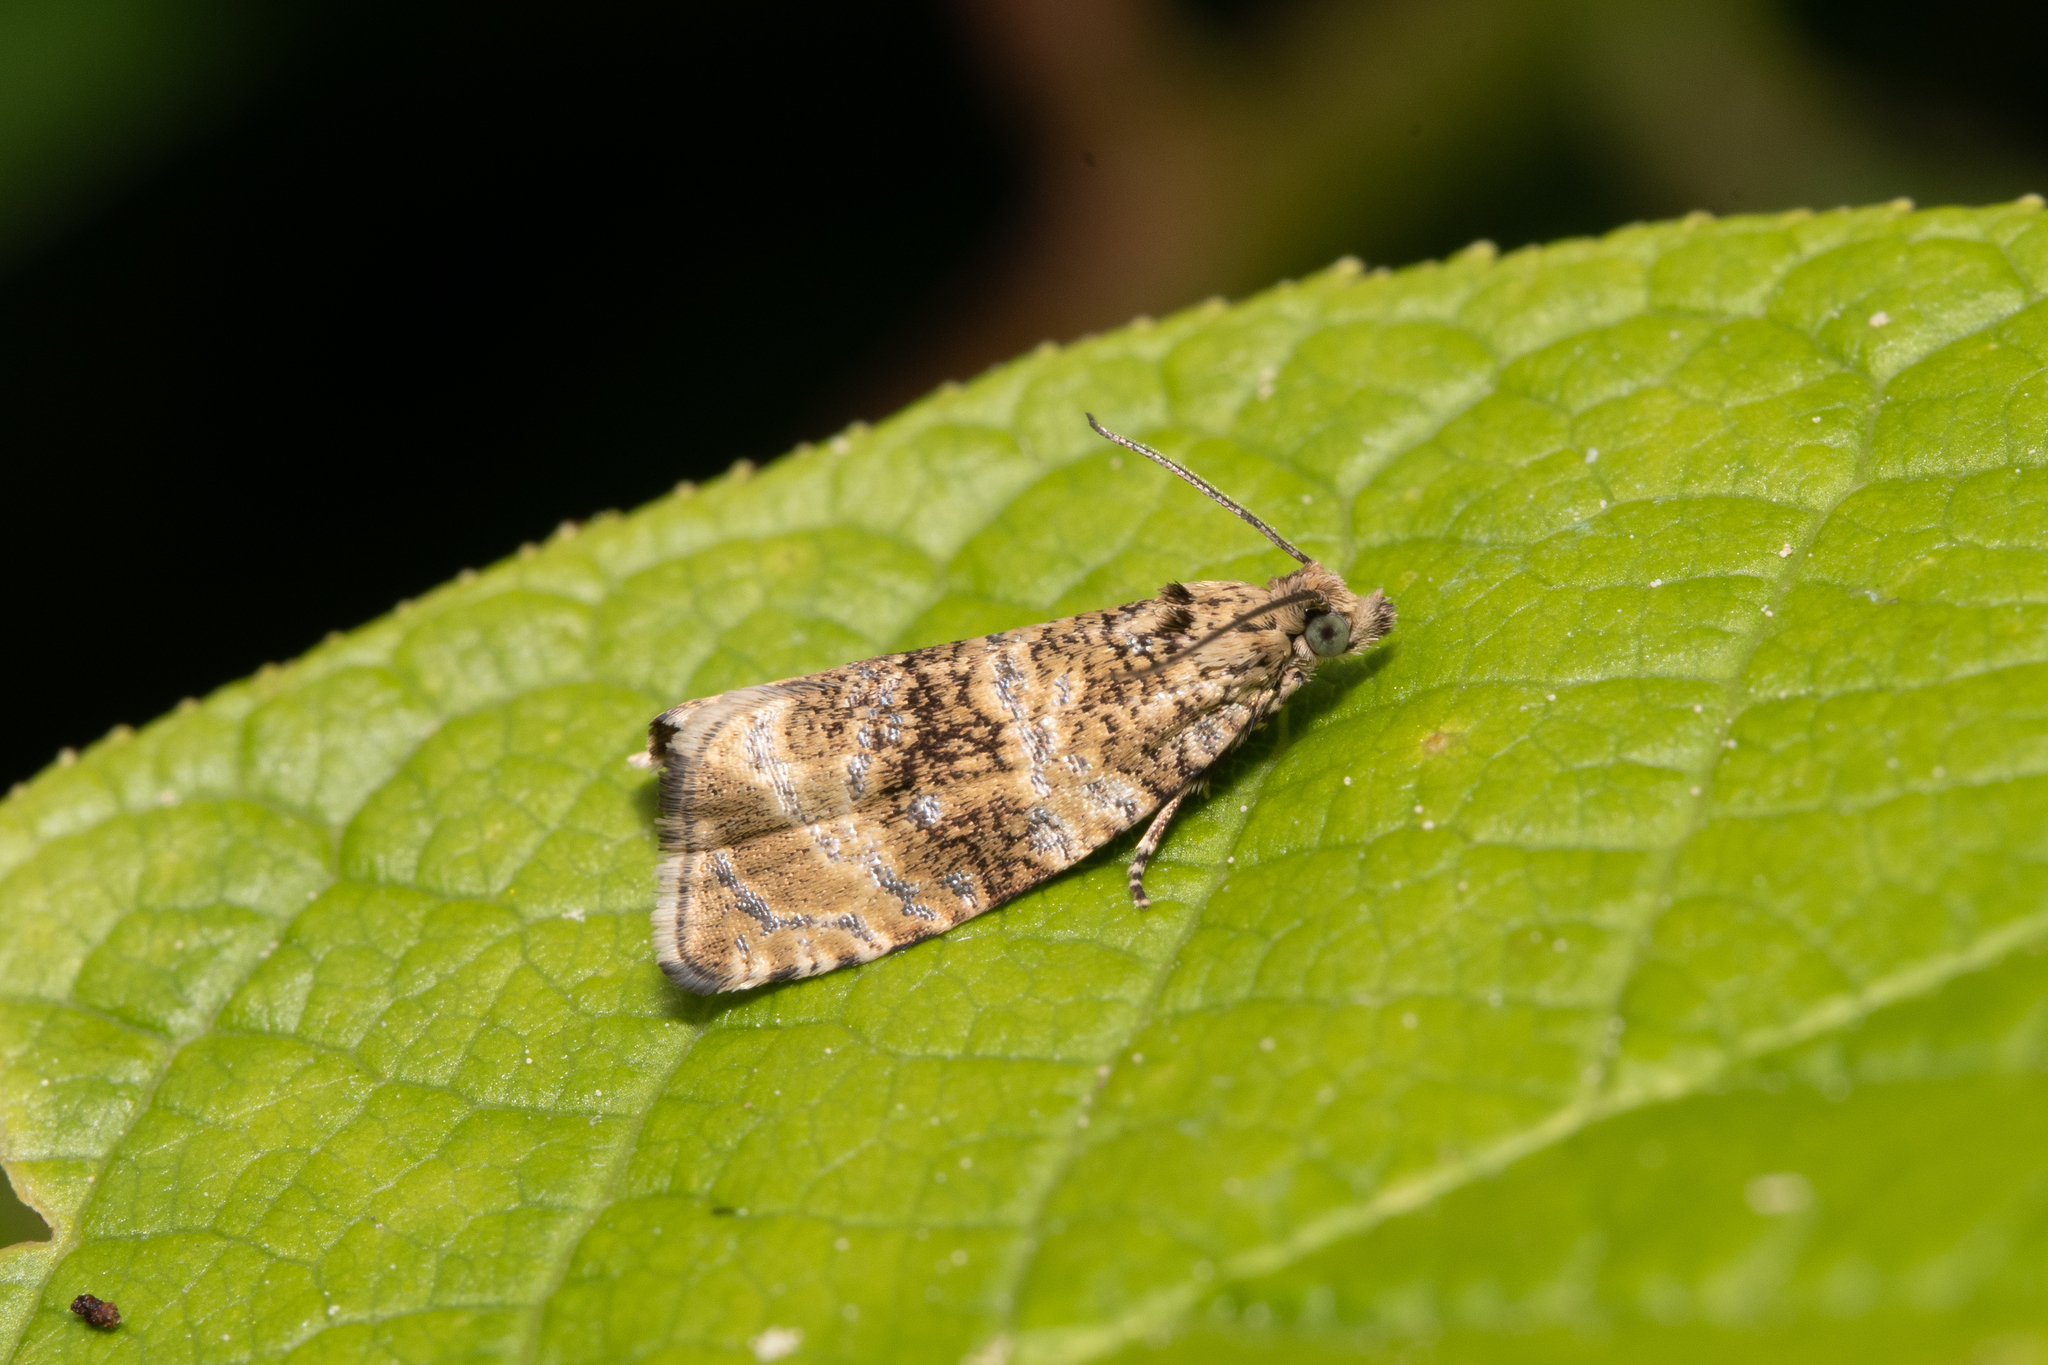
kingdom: Animalia
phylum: Arthropoda
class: Insecta
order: Lepidoptera
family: Tortricidae
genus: Syricoris
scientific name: Syricoris lacunana
